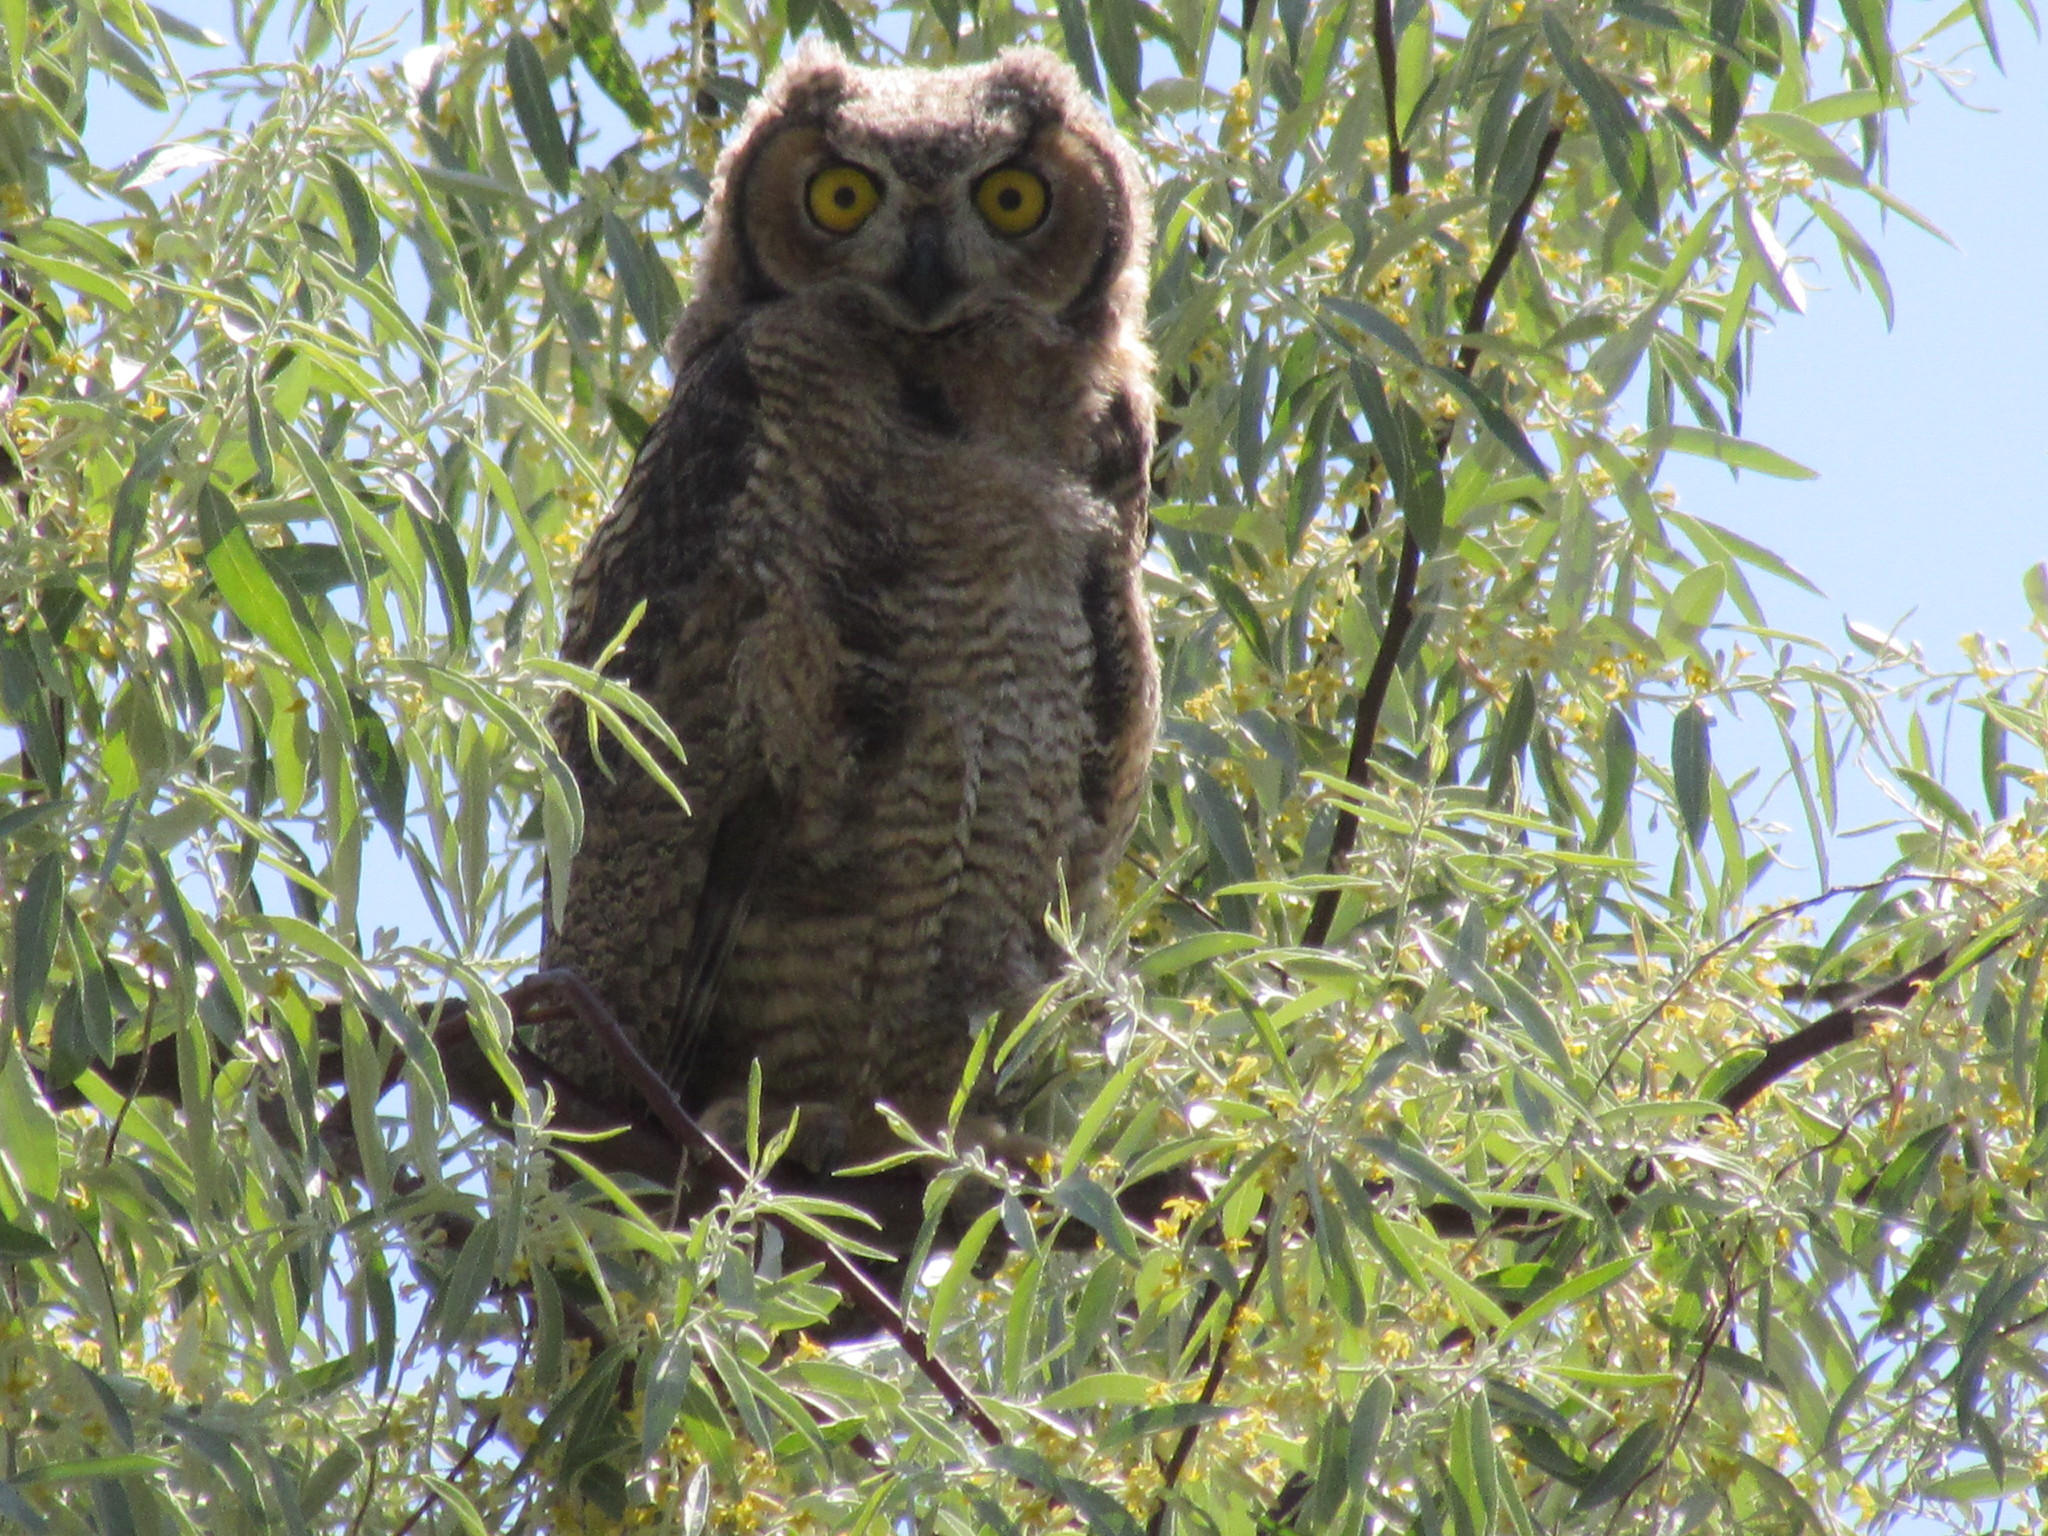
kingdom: Animalia
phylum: Chordata
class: Aves
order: Strigiformes
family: Strigidae
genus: Bubo
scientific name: Bubo virginianus
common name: Great horned owl
